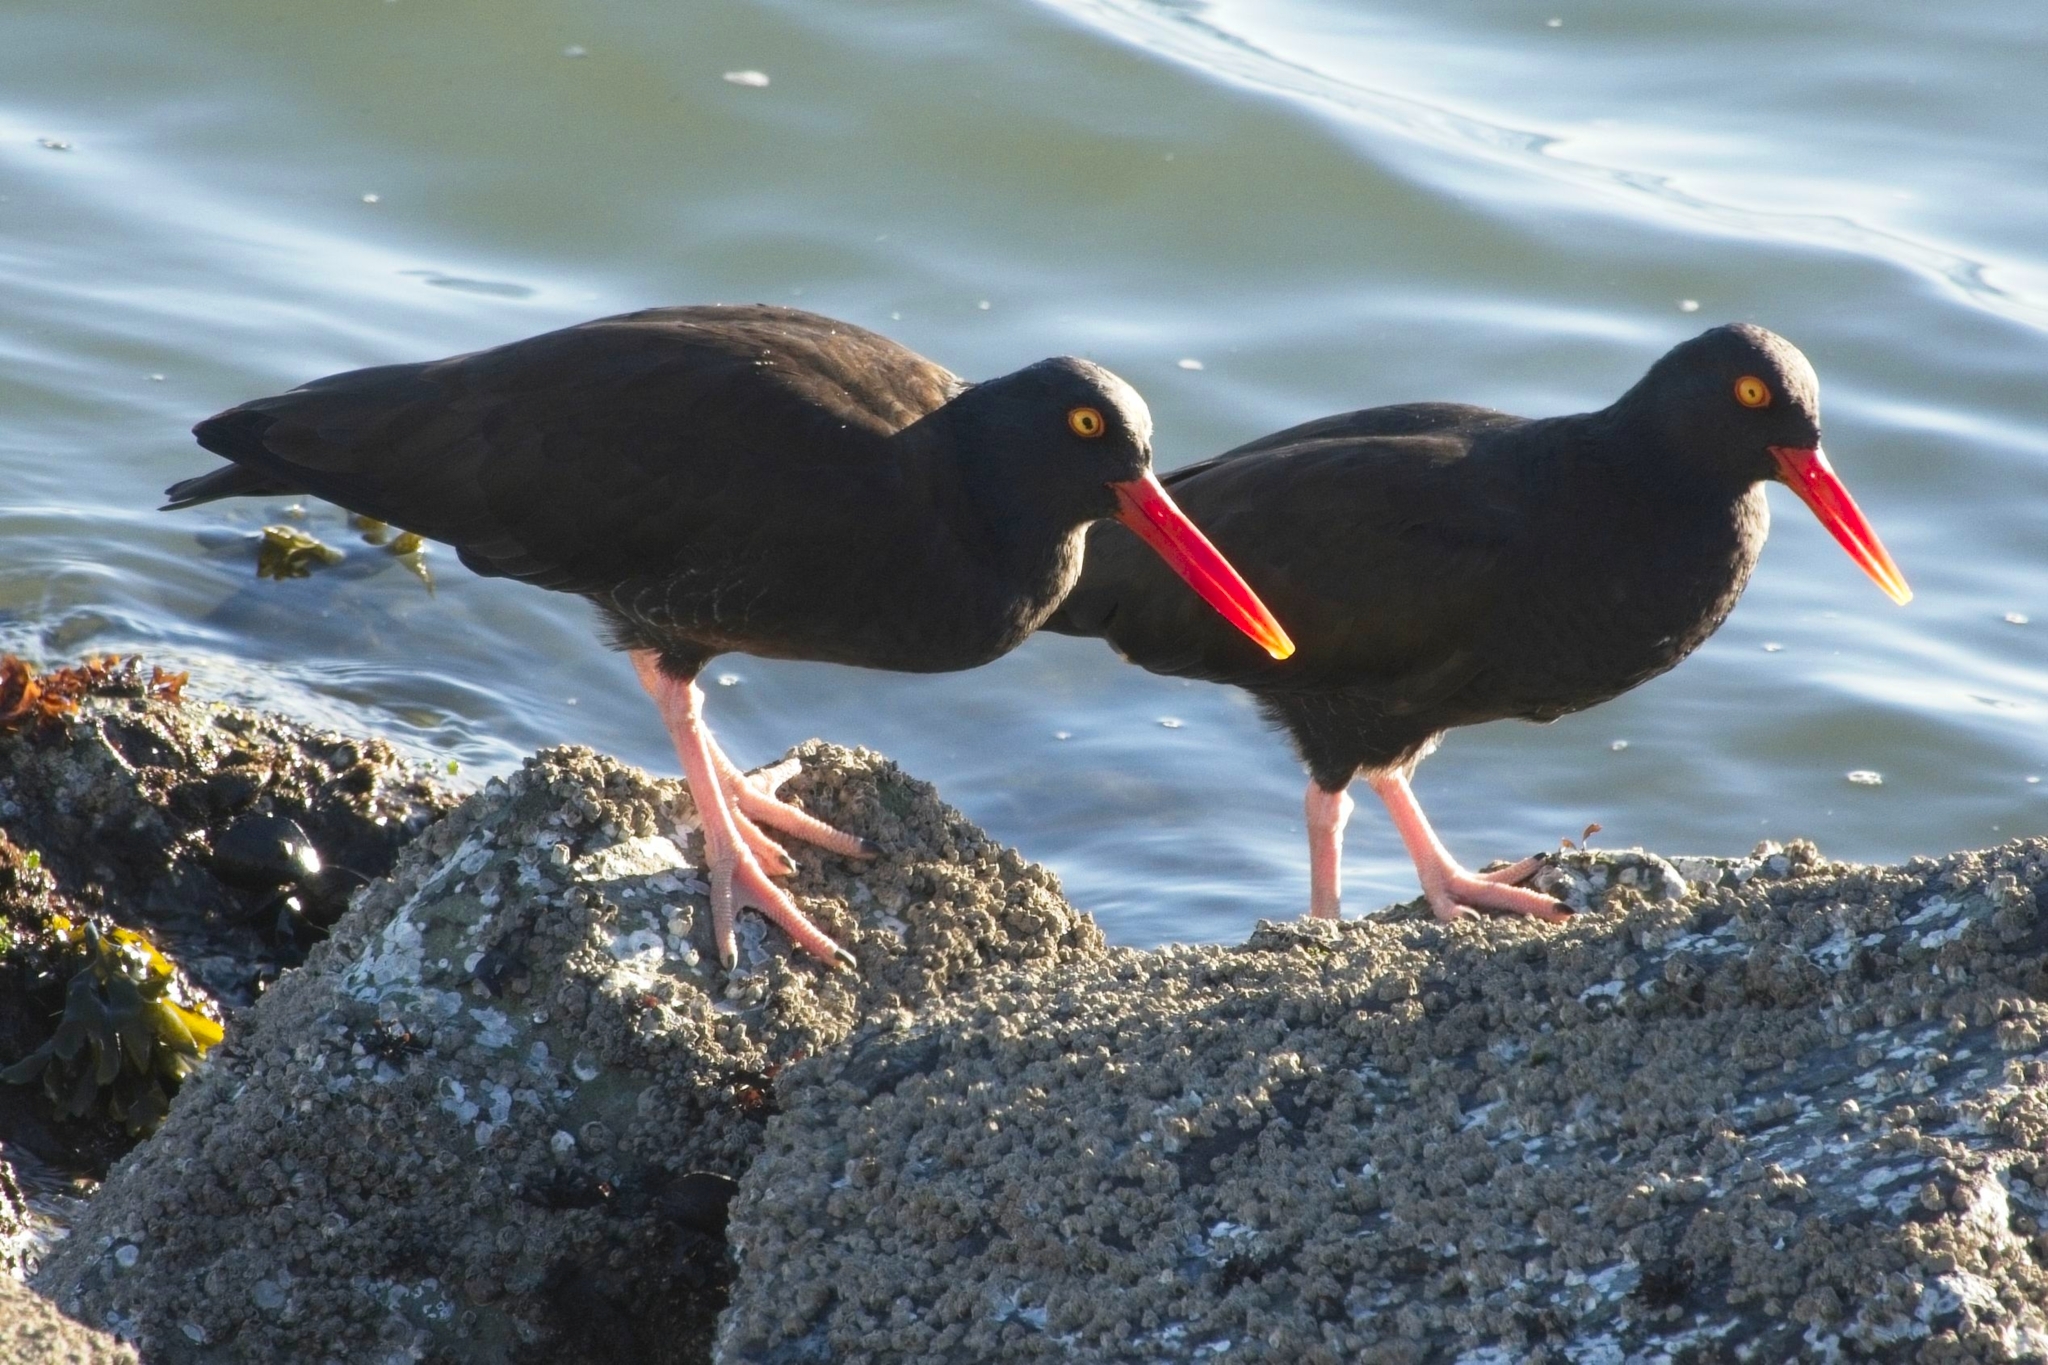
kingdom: Animalia
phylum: Chordata
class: Aves
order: Charadriiformes
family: Haematopodidae
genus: Haematopus
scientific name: Haematopus bachmani
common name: Black oystercatcher
